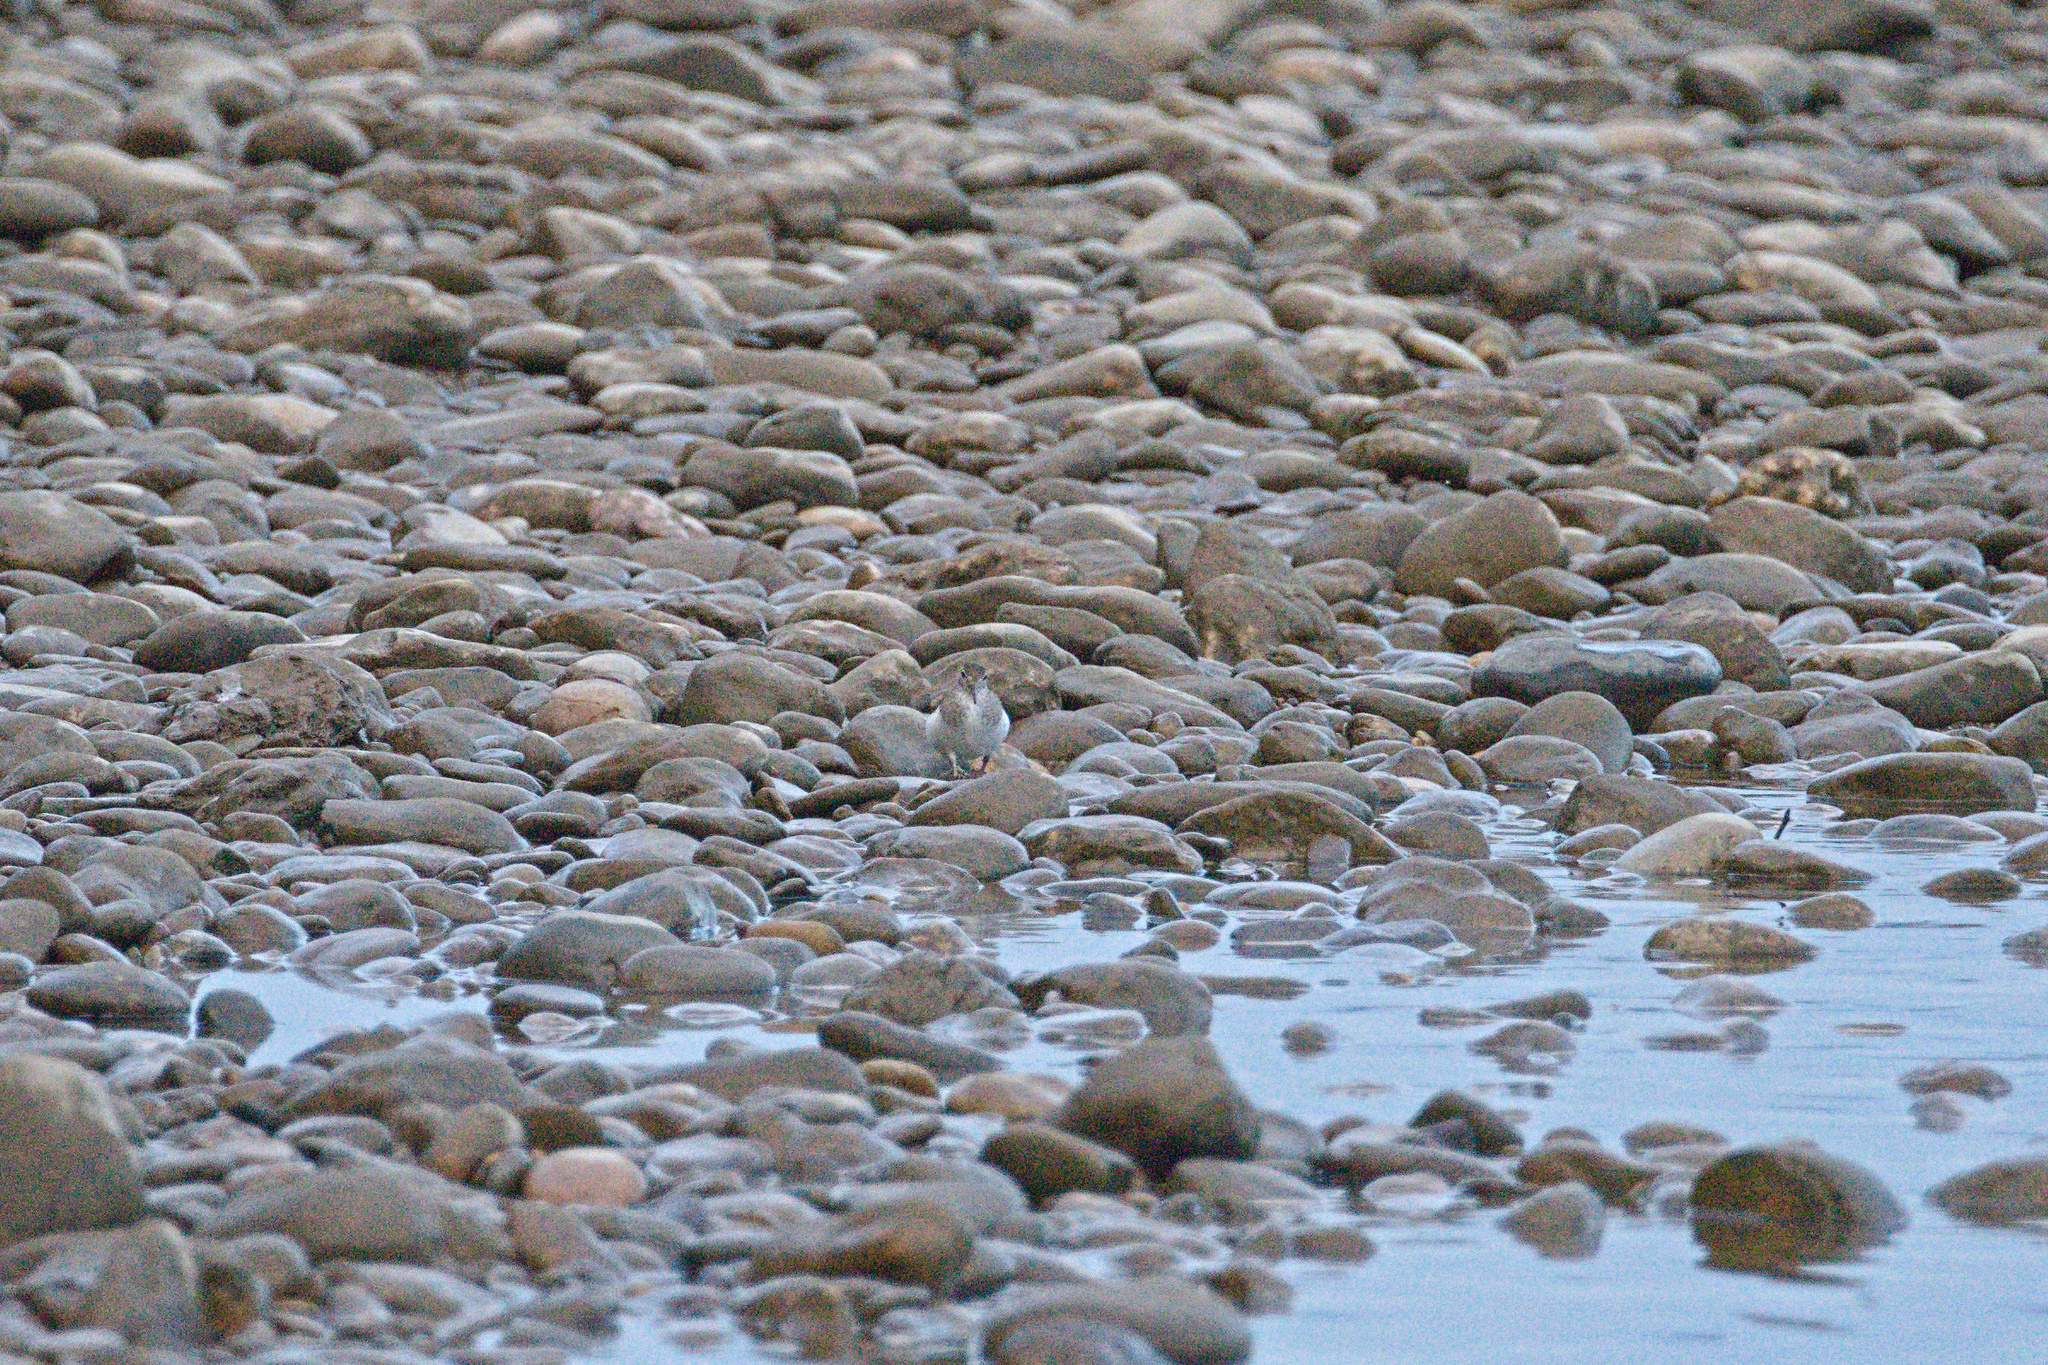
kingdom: Animalia
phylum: Chordata
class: Aves
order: Charadriiformes
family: Scolopacidae
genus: Actitis
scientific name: Actitis hypoleucos
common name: Common sandpiper
